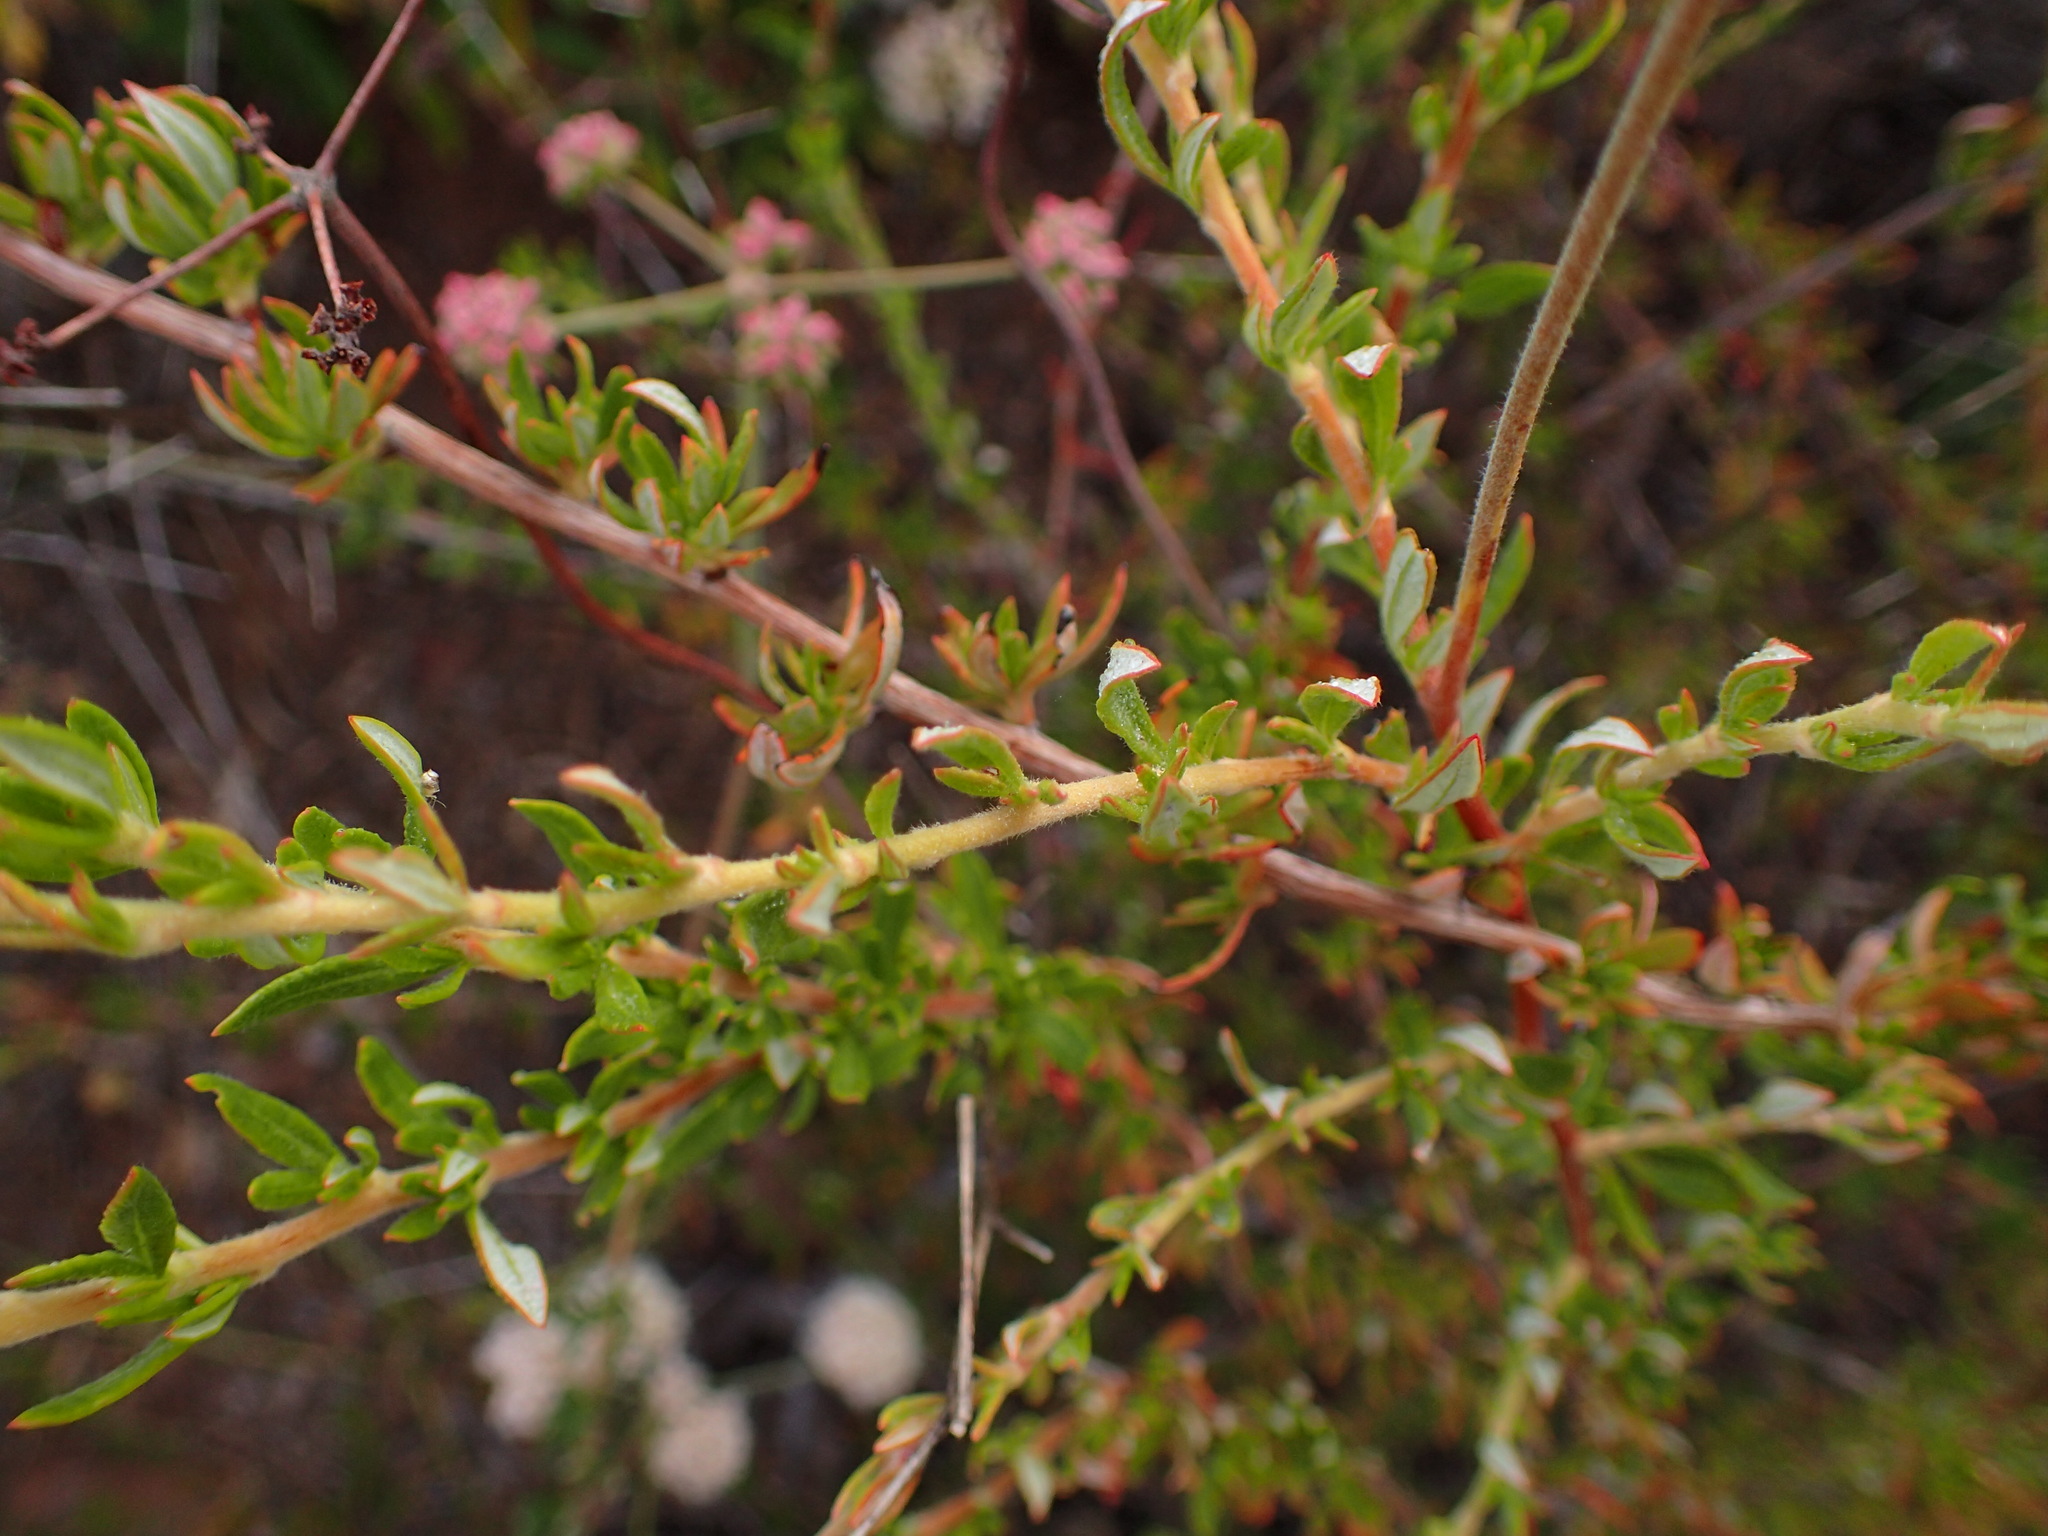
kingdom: Plantae
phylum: Tracheophyta
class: Magnoliopsida
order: Caryophyllales
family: Polygonaceae
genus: Eriogonum
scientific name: Eriogonum fasciculatum
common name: California wild buckwheat
